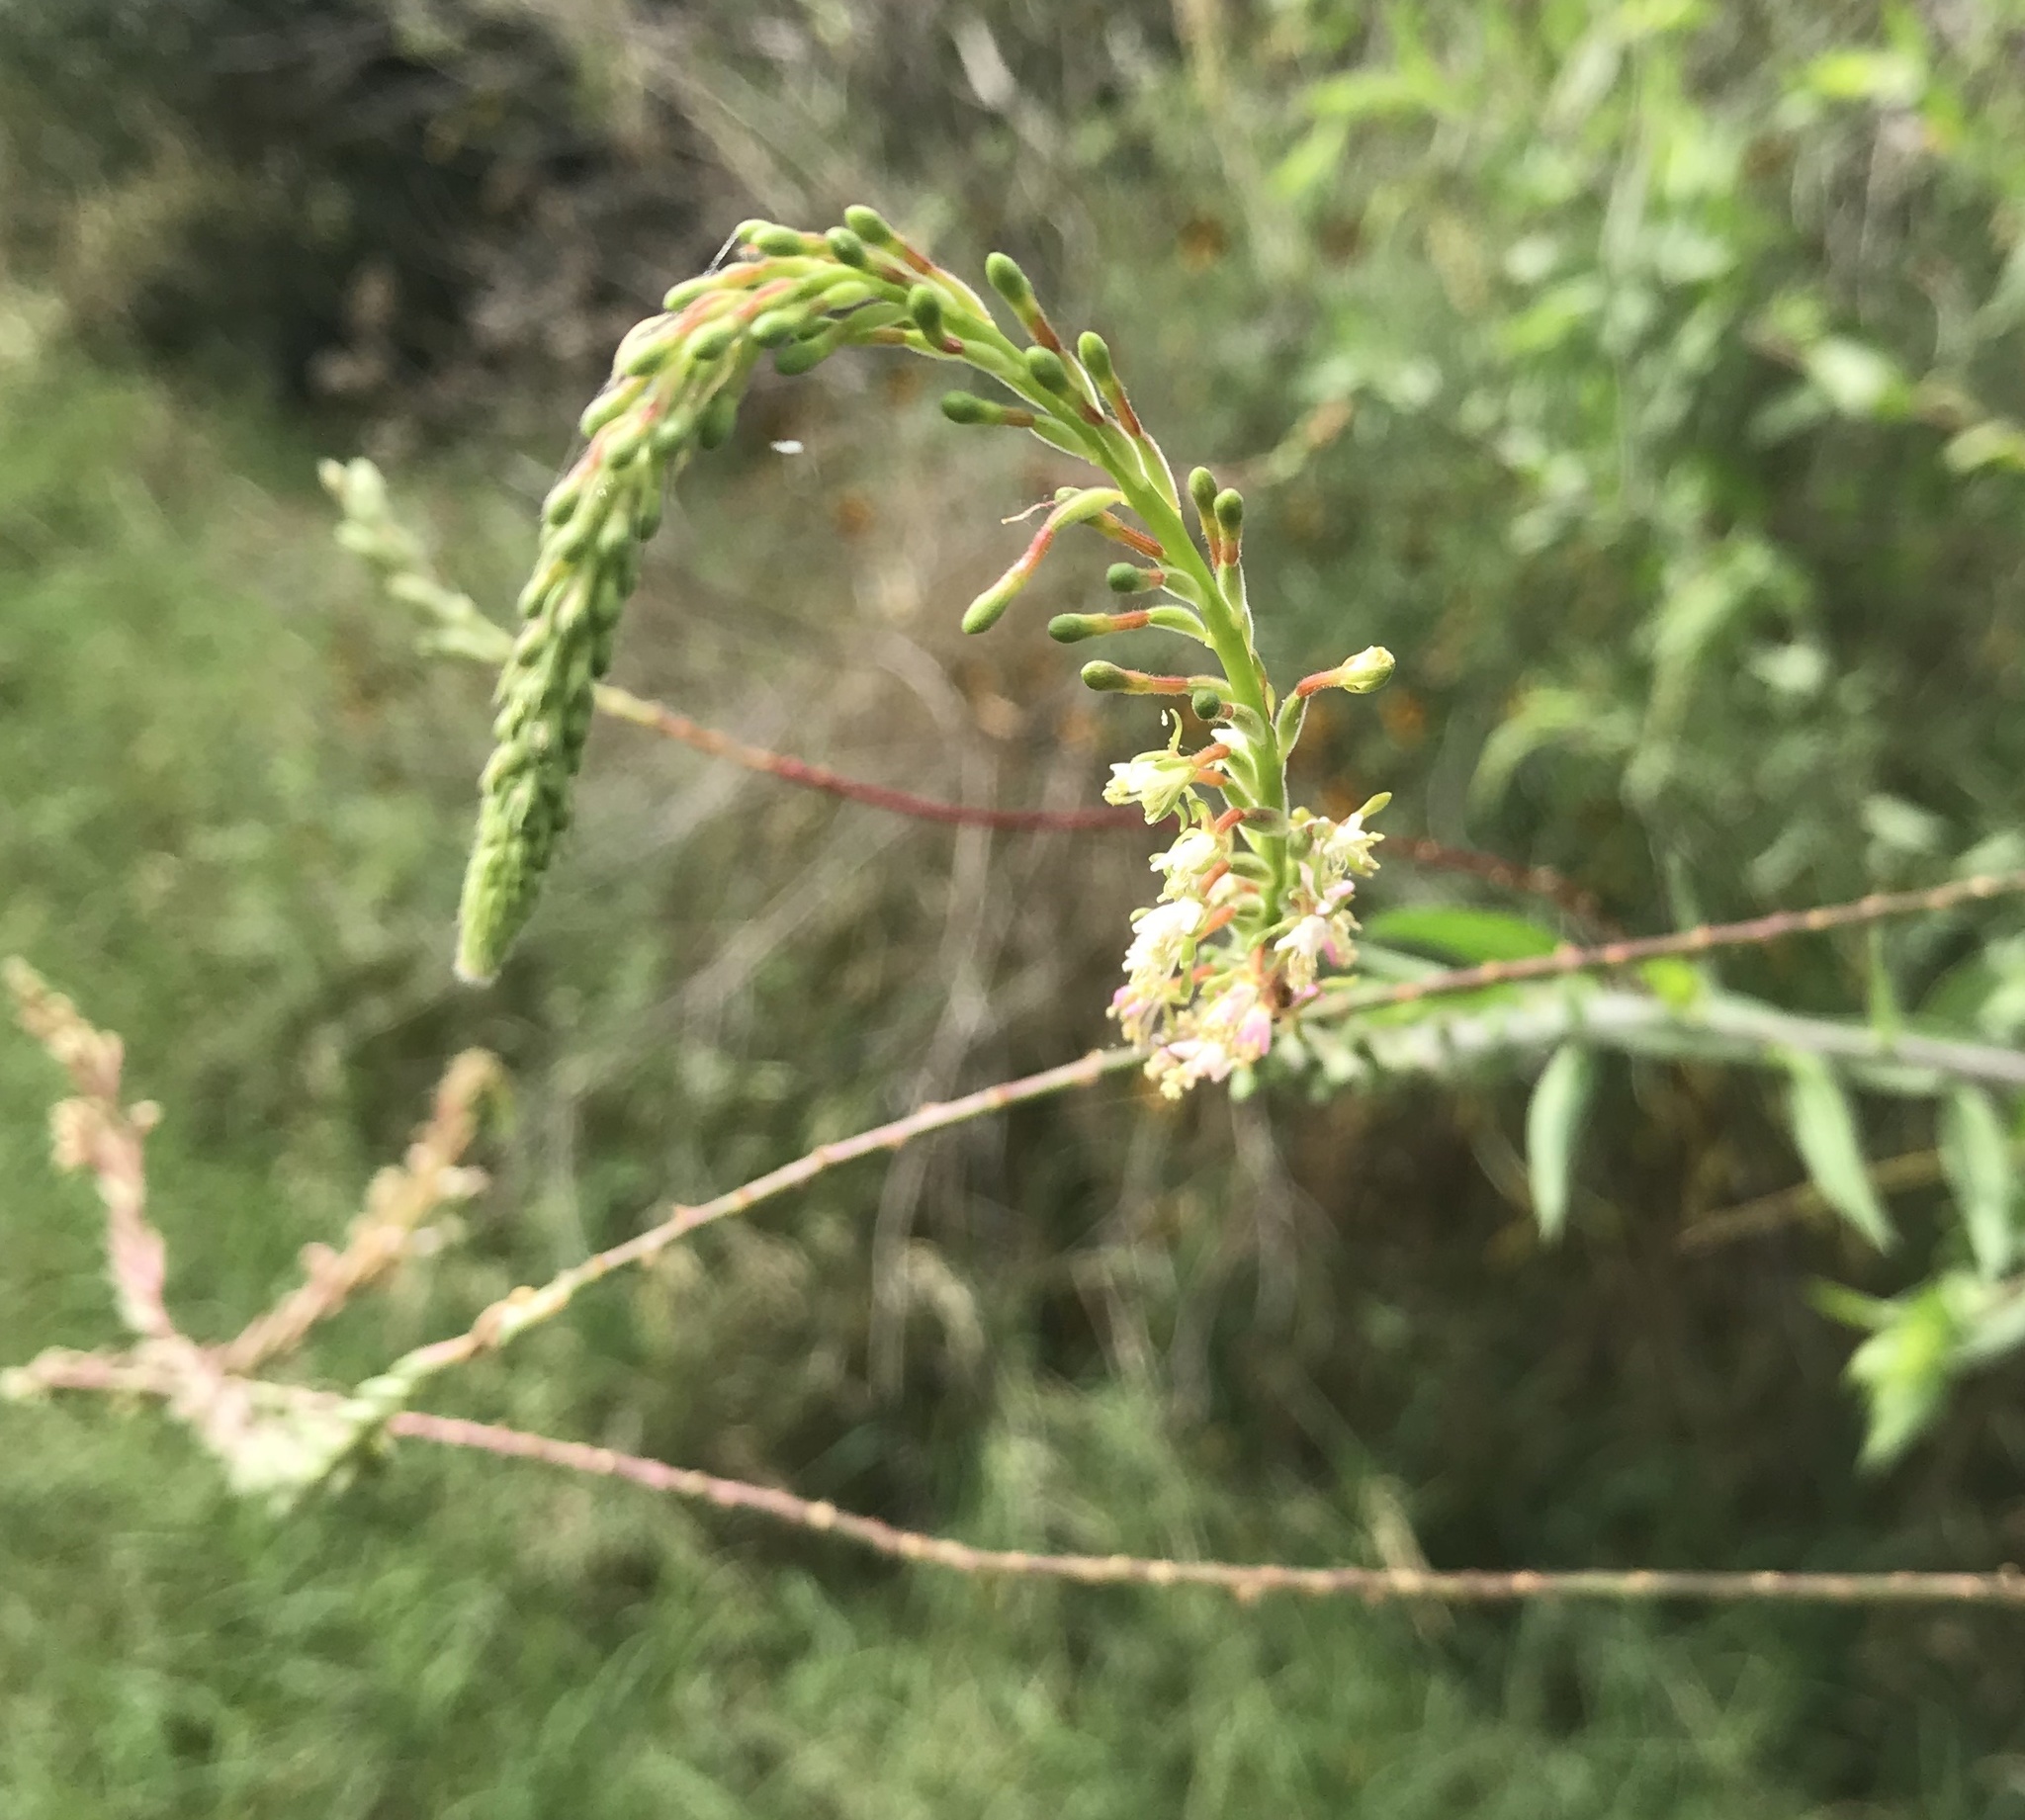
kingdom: Plantae
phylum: Tracheophyta
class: Magnoliopsida
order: Myrtales
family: Onagraceae
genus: Oenothera
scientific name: Oenothera curtiflora
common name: Velvetweed
